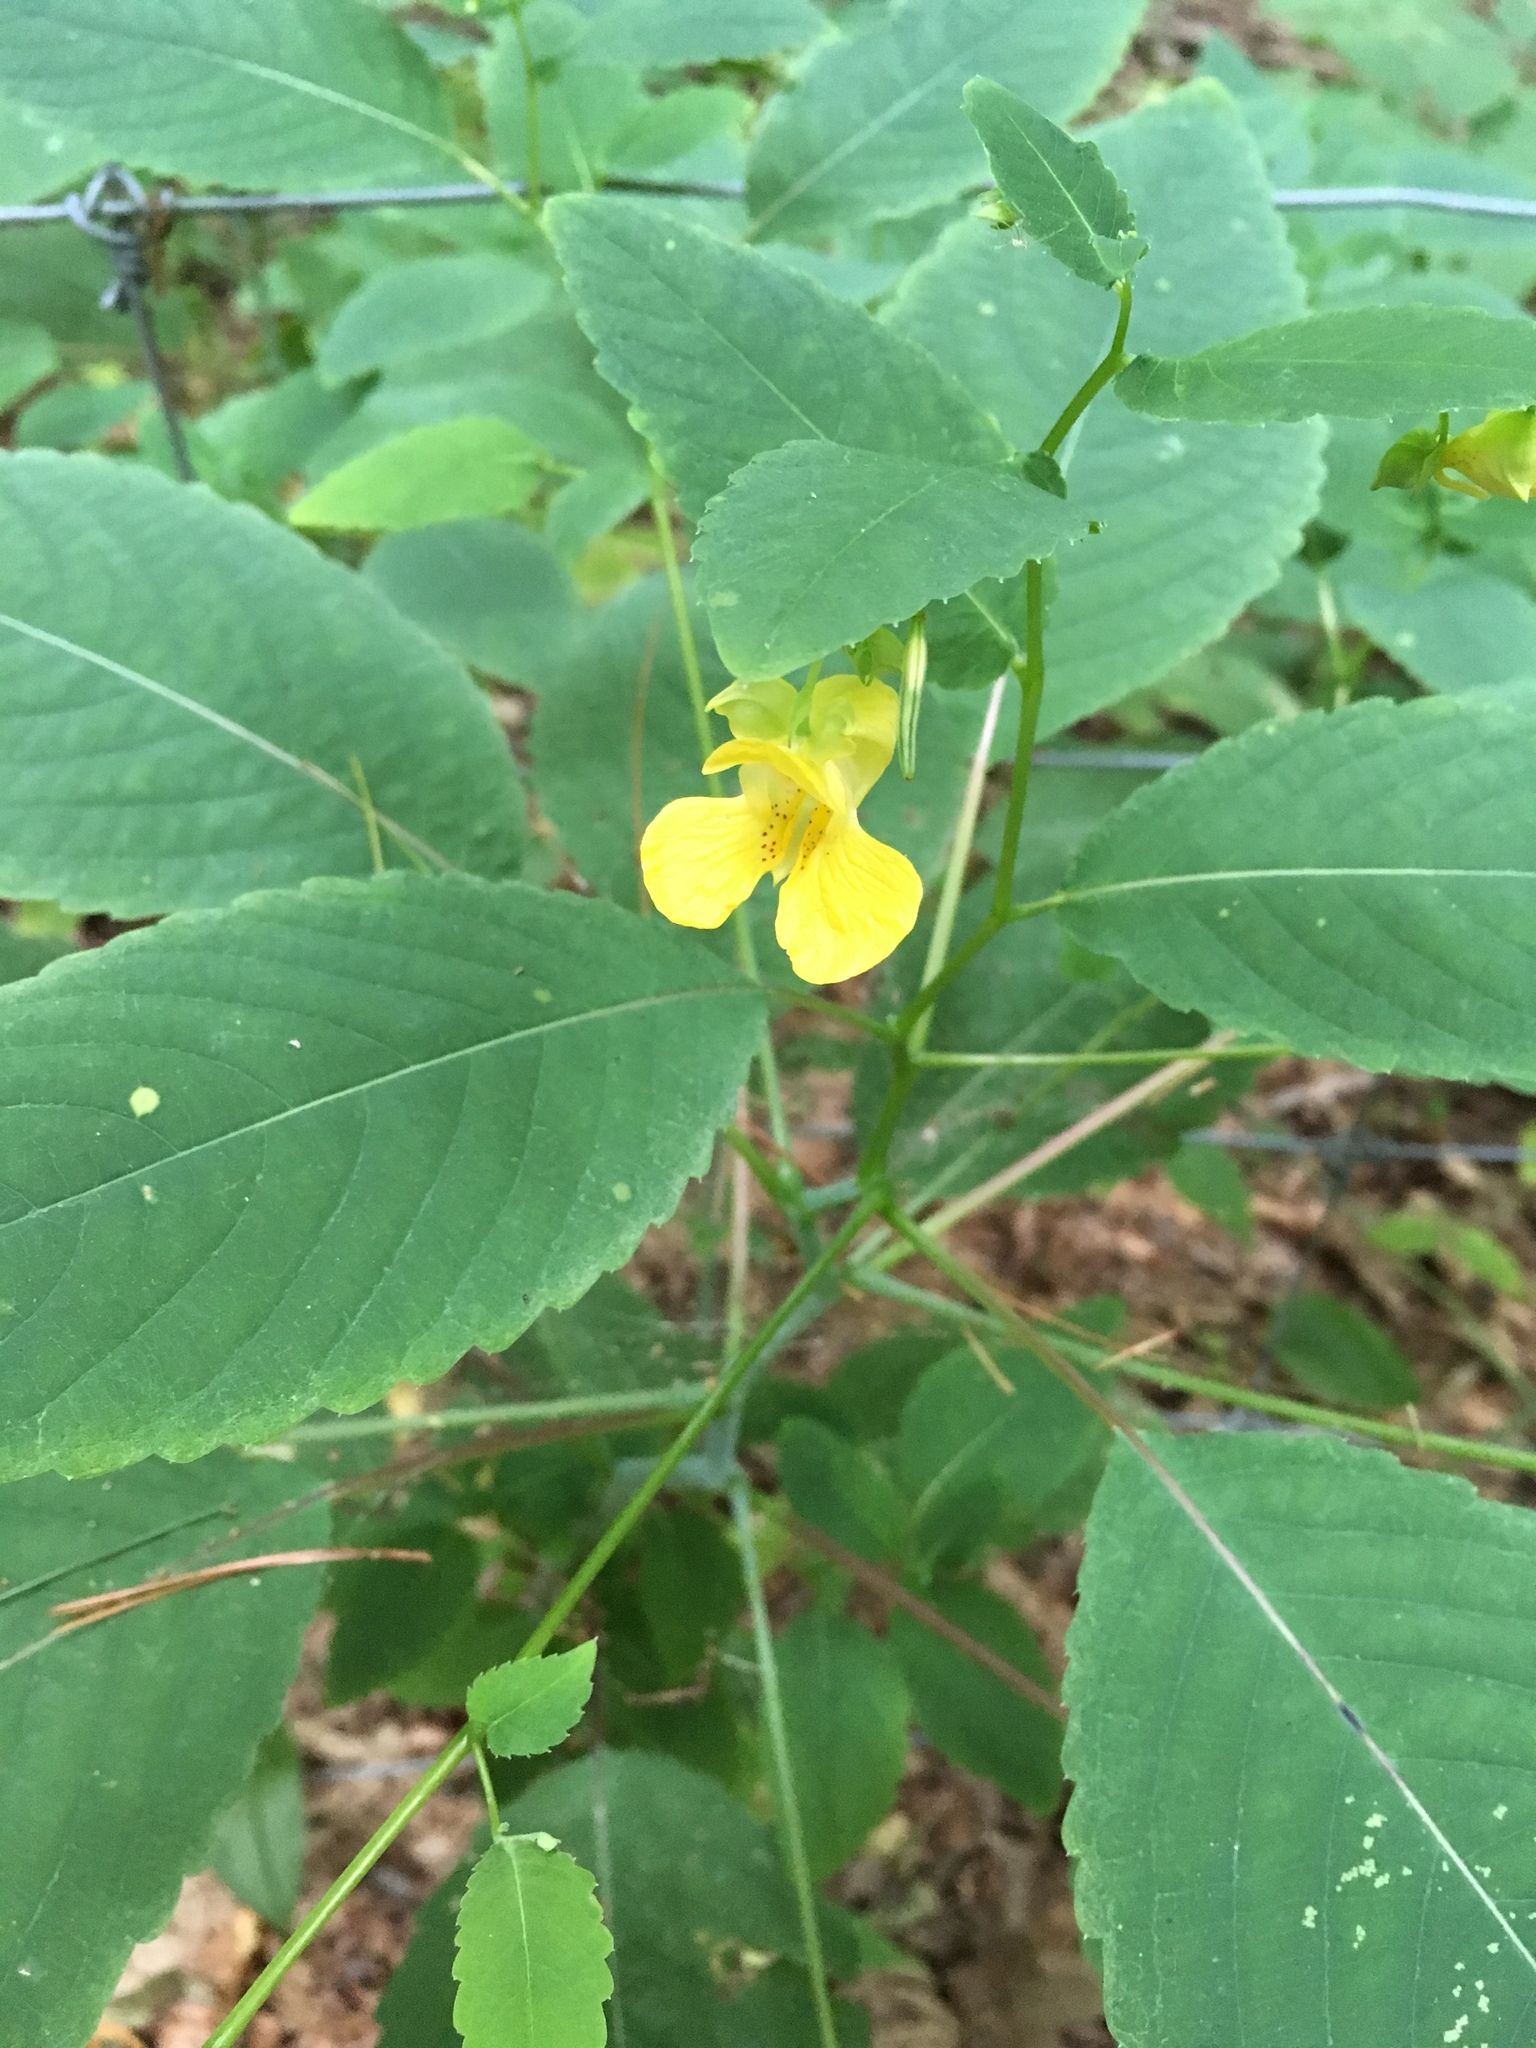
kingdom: Plantae
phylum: Tracheophyta
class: Magnoliopsida
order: Ericales
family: Balsaminaceae
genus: Impatiens
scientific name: Impatiens pallida
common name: Pale snapweed
